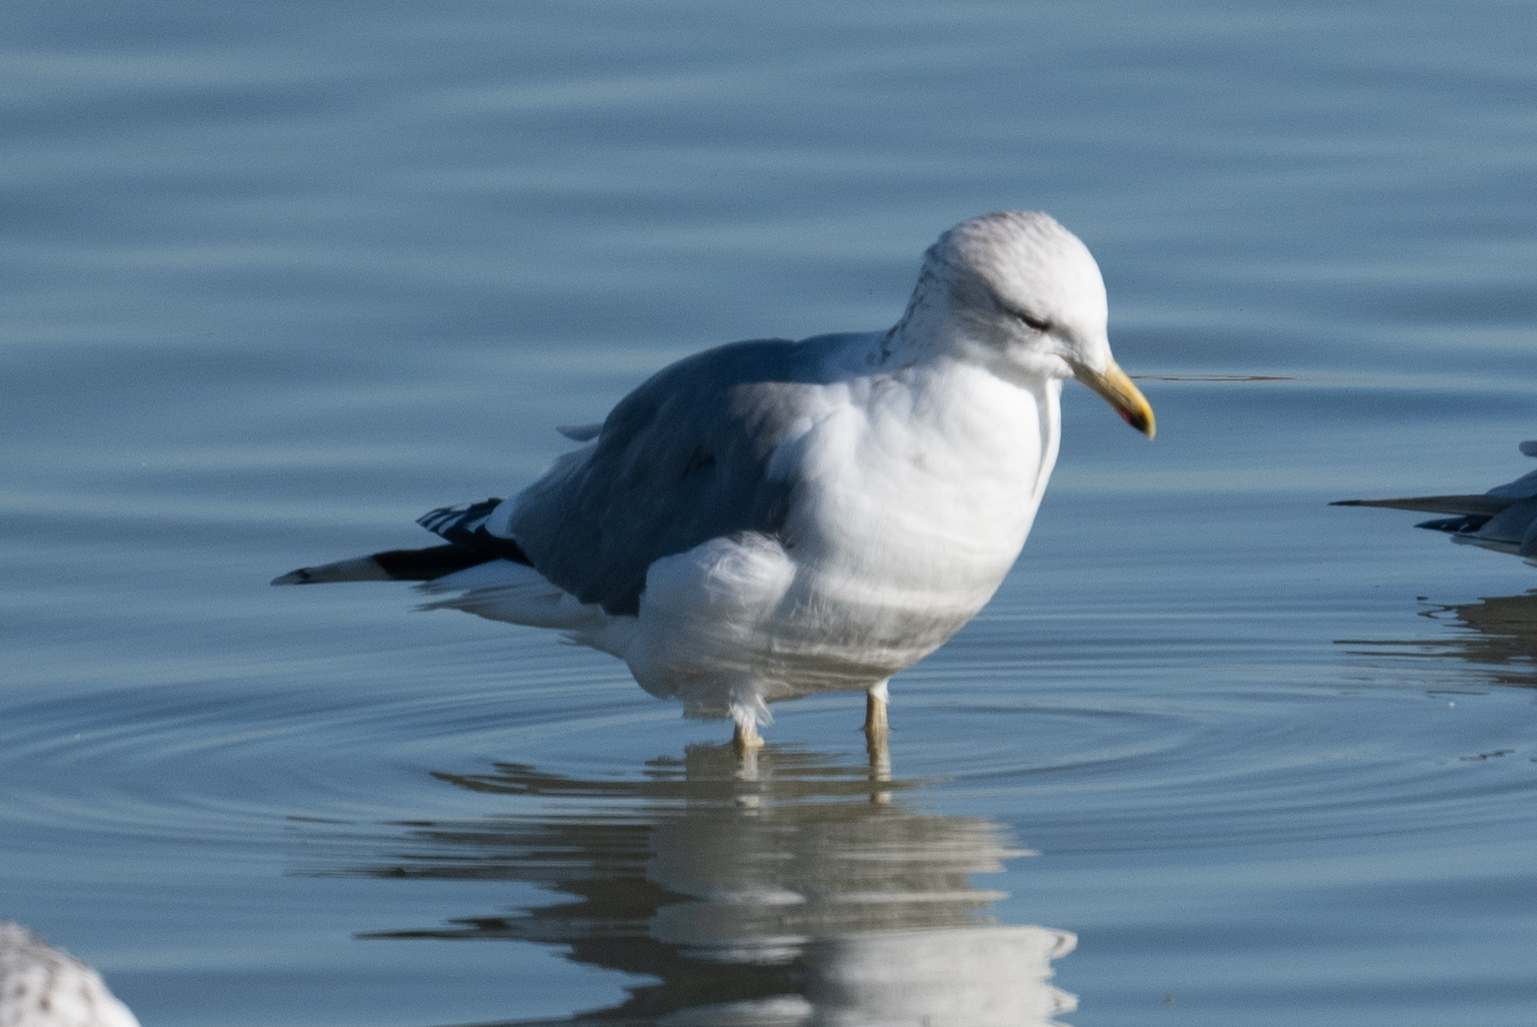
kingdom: Animalia
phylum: Chordata
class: Aves
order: Charadriiformes
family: Laridae
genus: Larus
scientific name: Larus californicus
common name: California gull
